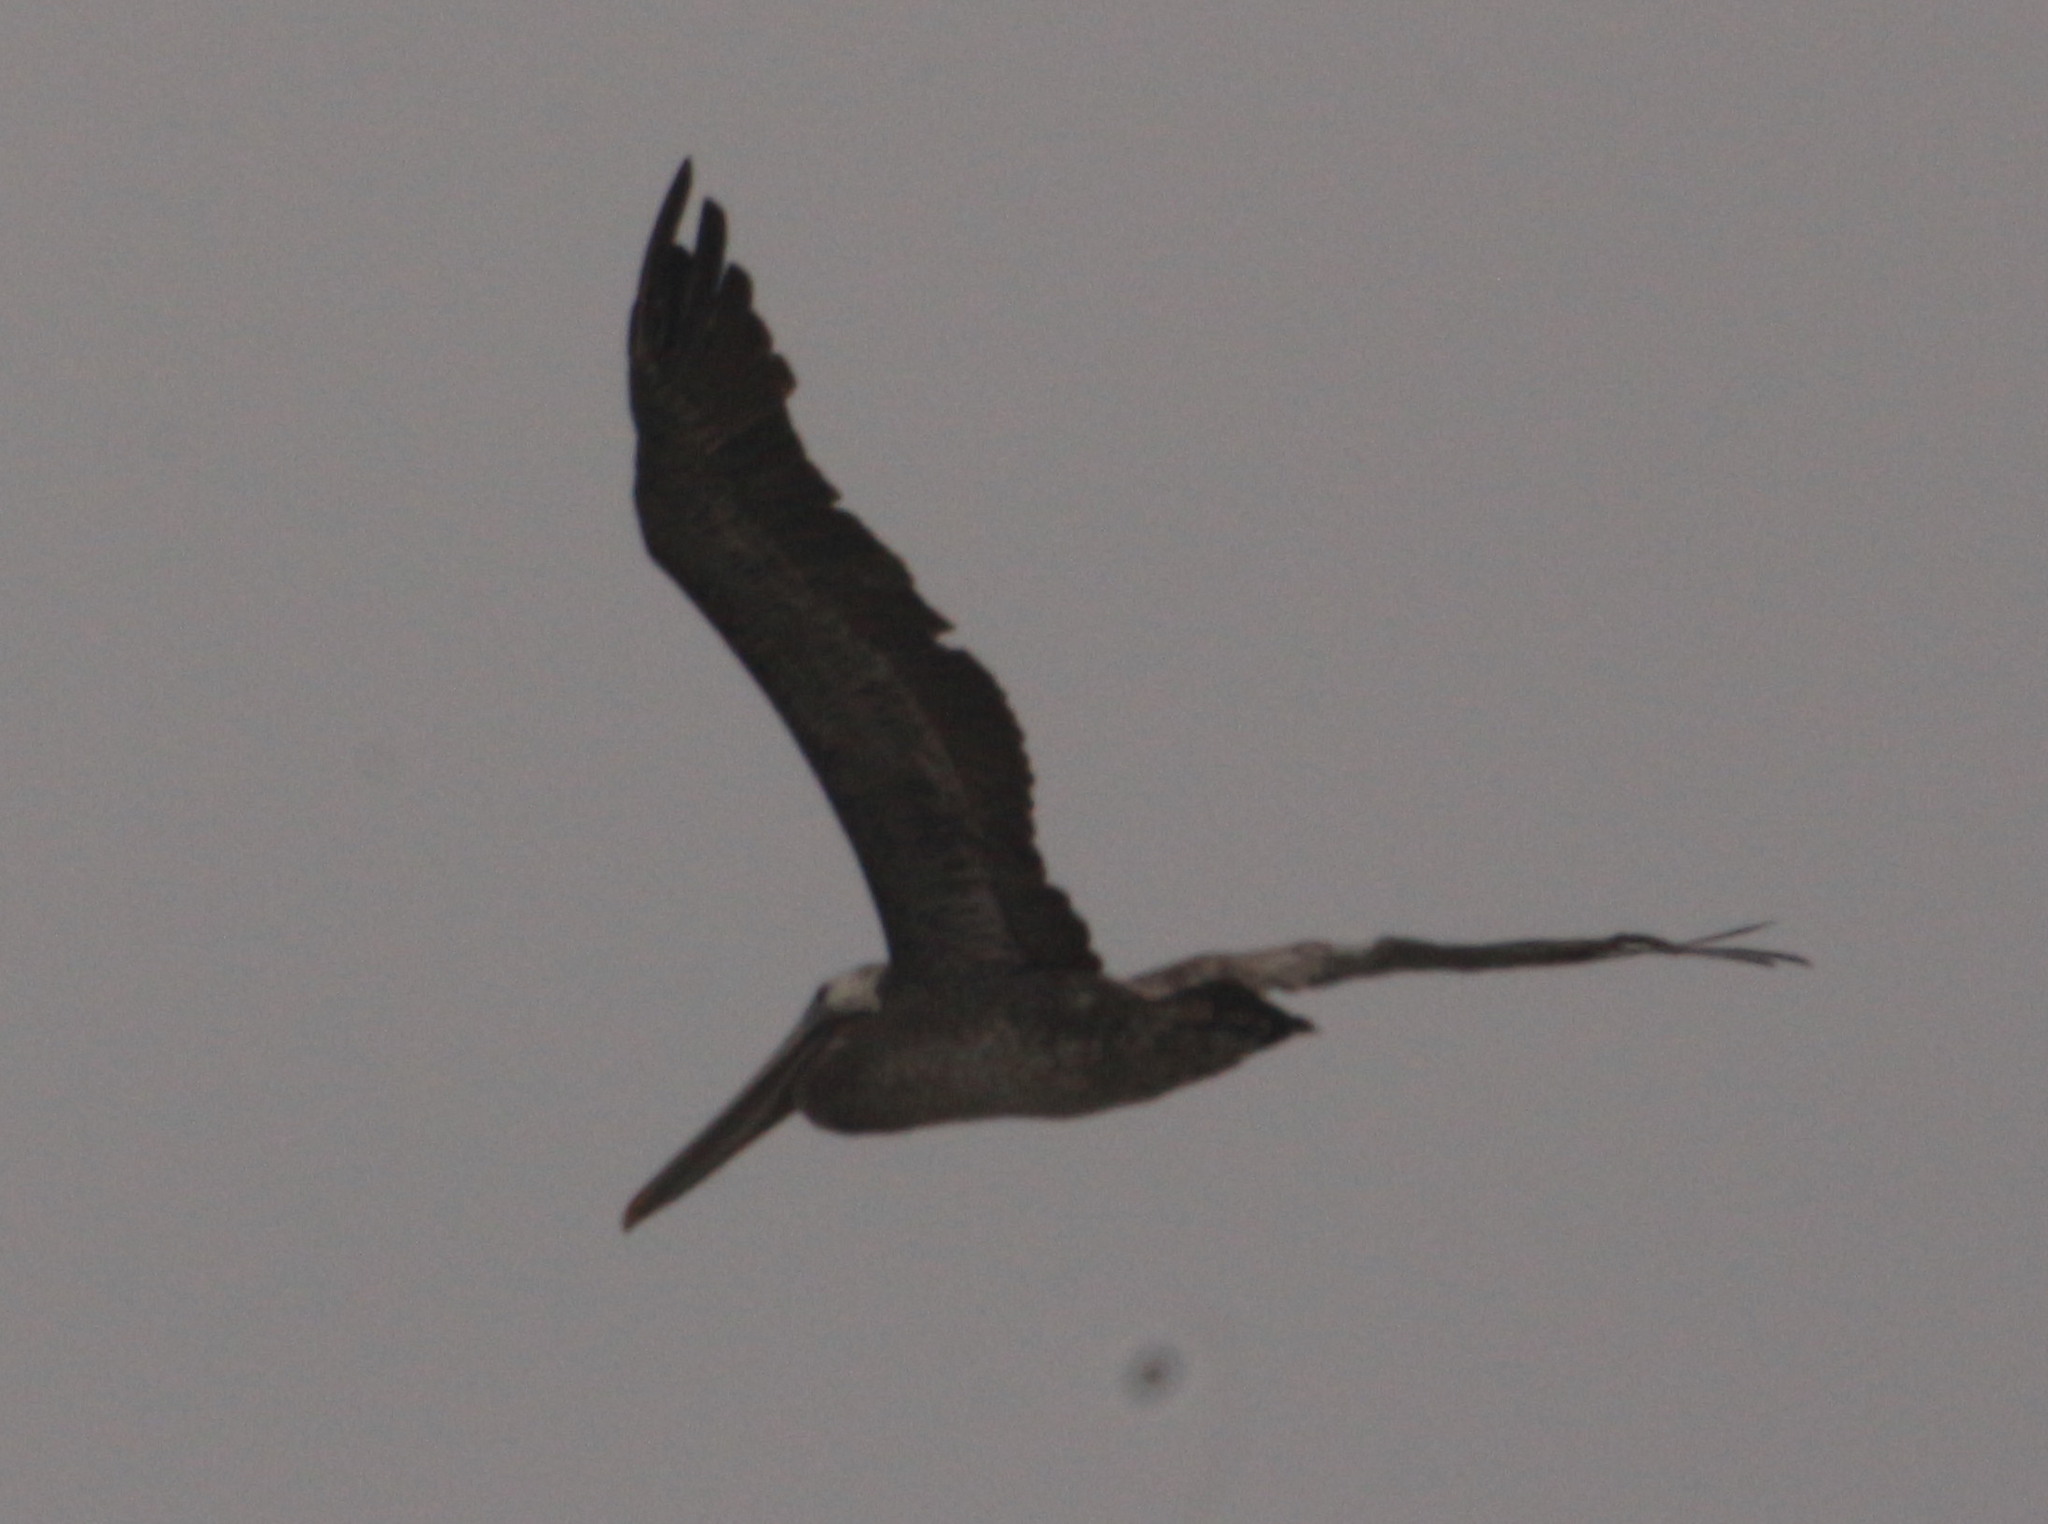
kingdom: Animalia
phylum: Chordata
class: Aves
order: Pelecaniformes
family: Pelecanidae
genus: Pelecanus
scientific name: Pelecanus occidentalis
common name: Brown pelican
